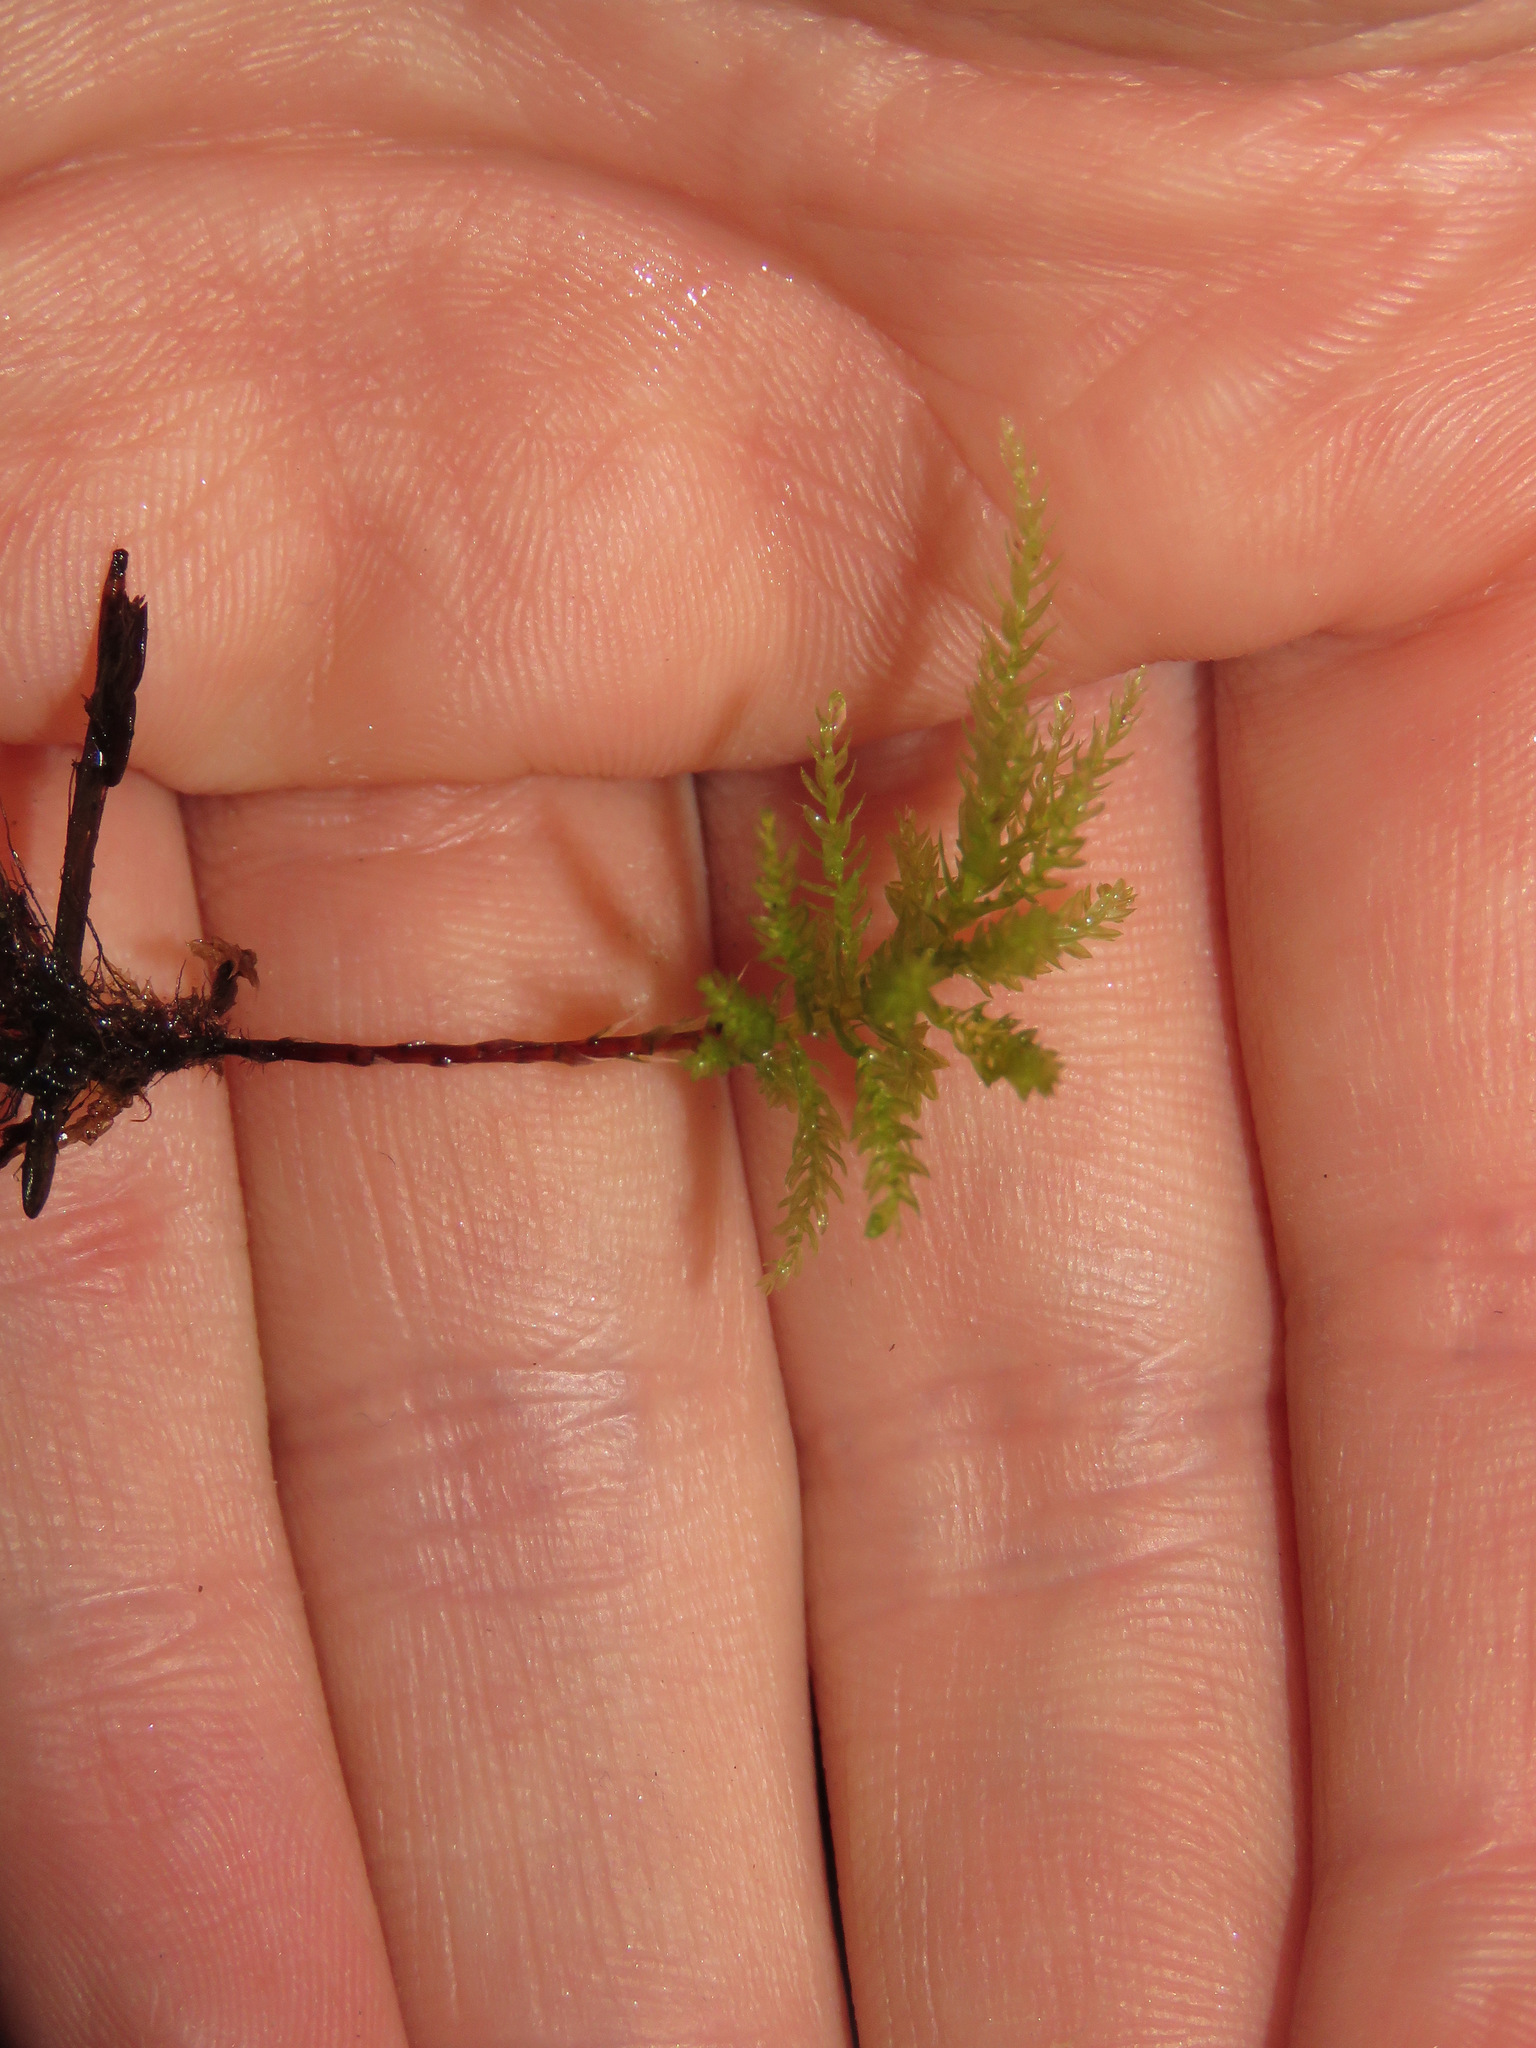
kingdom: Plantae
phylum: Bryophyta
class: Bryopsida
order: Bryales
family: Mniaceae
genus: Leucolepis
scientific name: Leucolepis acanthoneura
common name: Leucolepis umbrella moss
